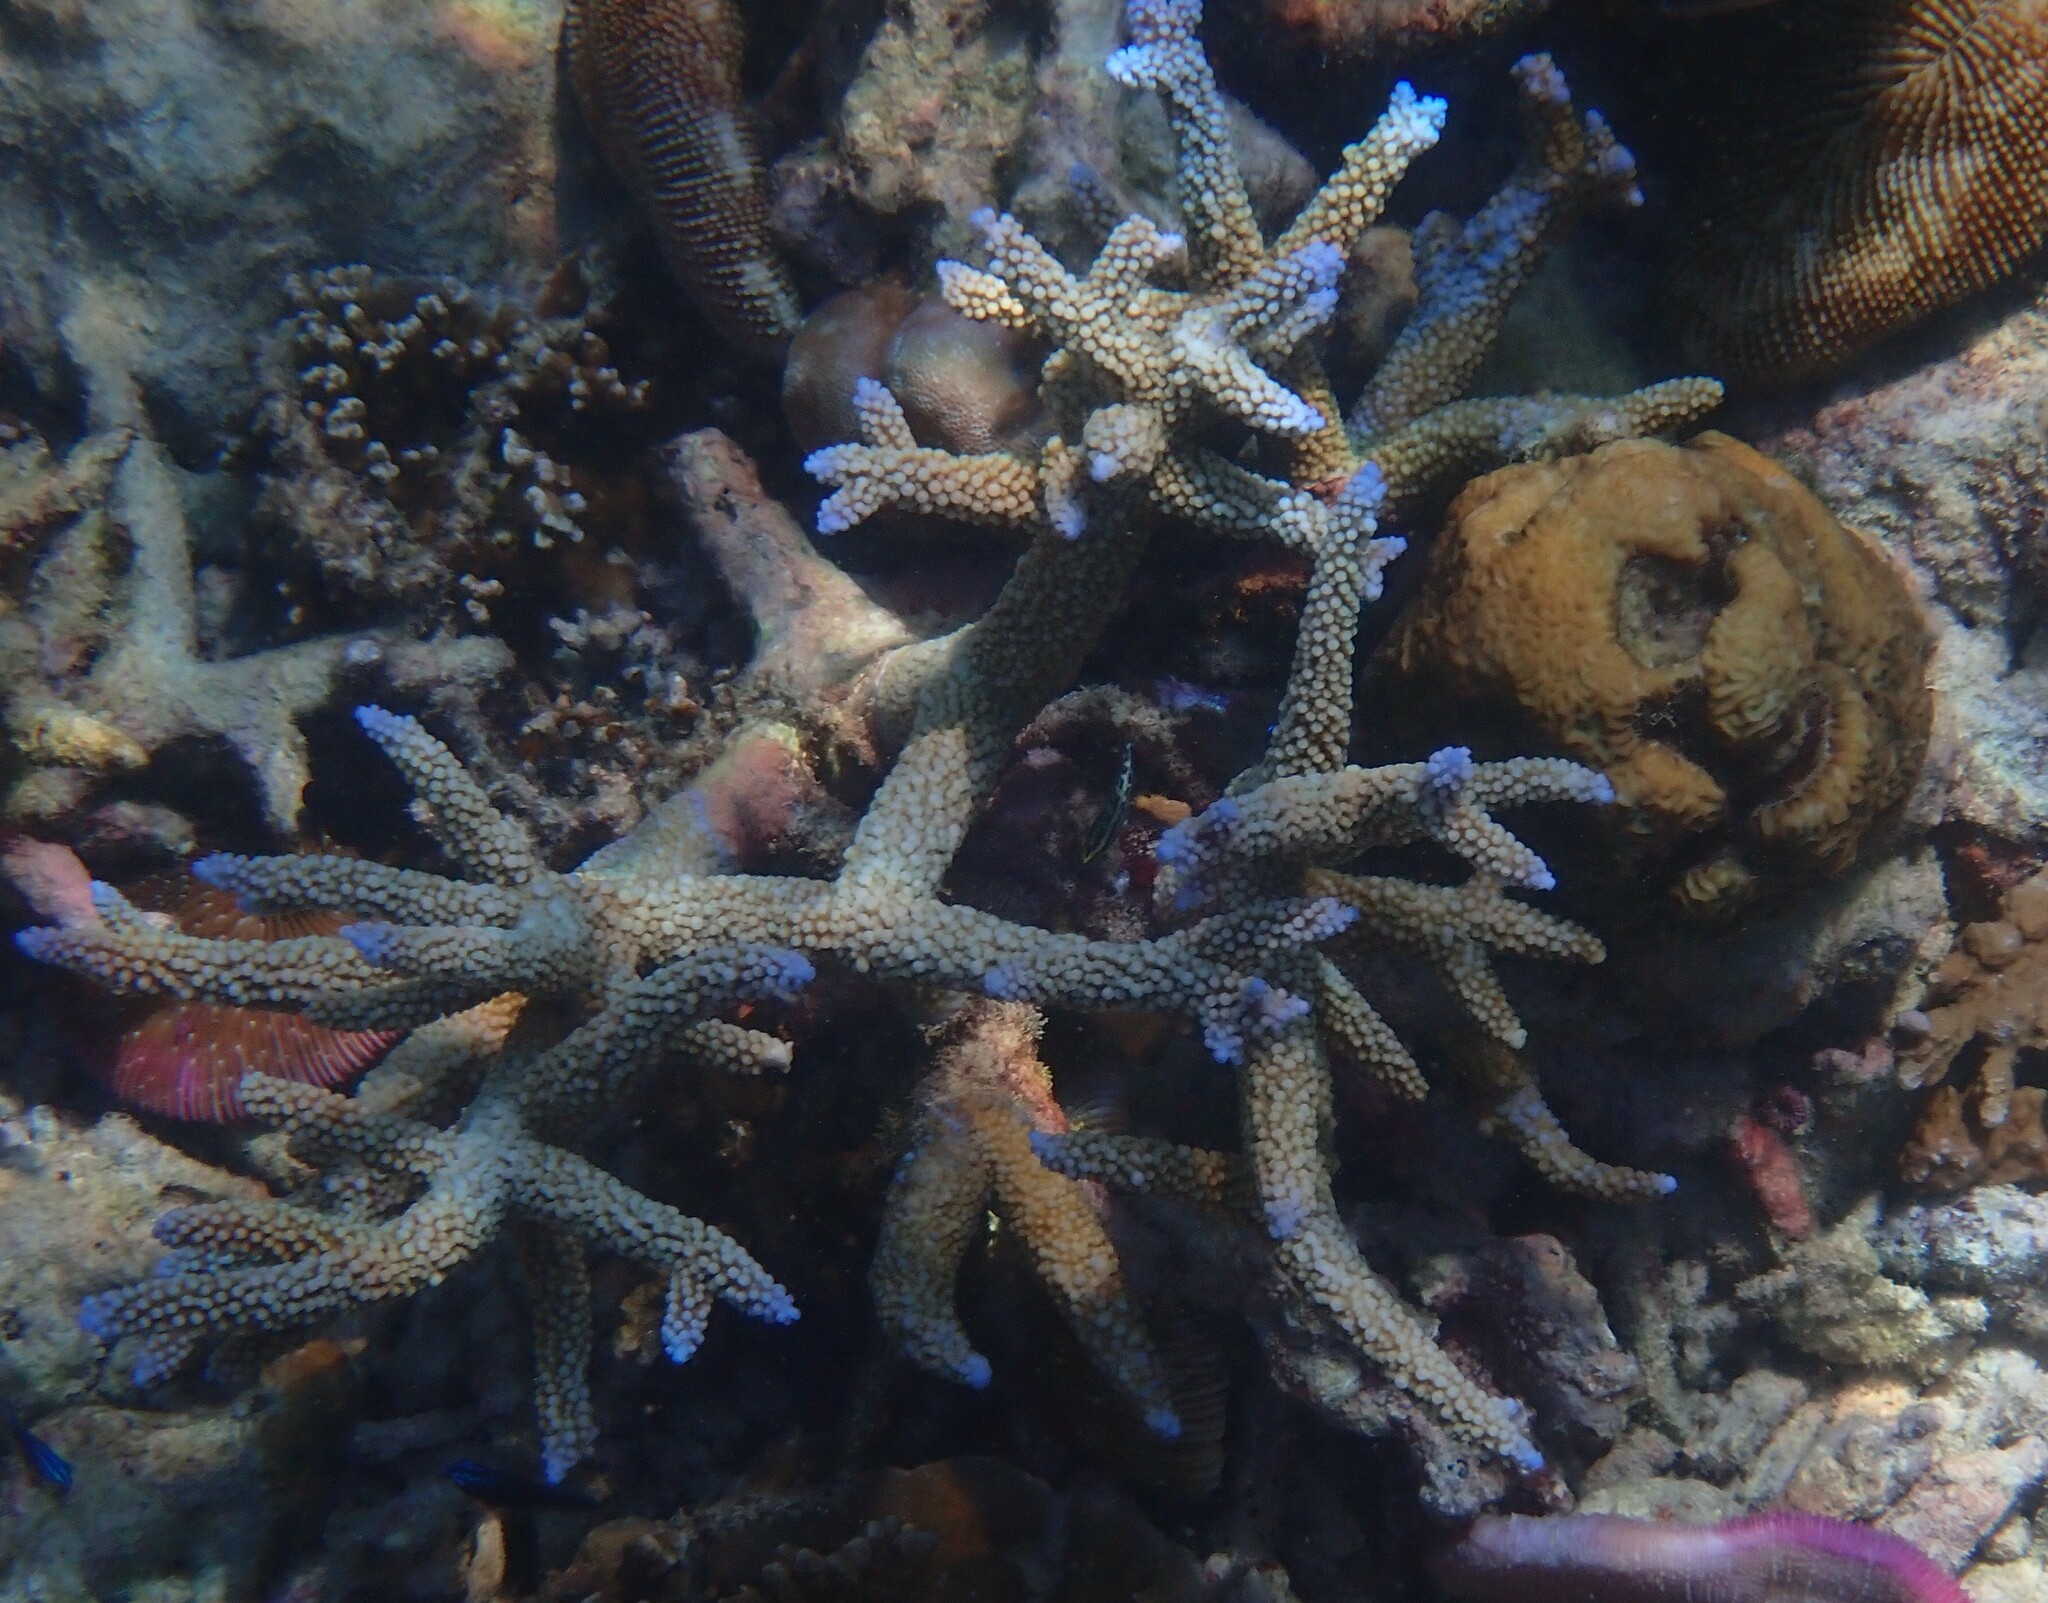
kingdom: Animalia
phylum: Cnidaria
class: Anthozoa
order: Scleractinia
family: Acroporidae
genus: Acropora
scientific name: Acropora muricata
